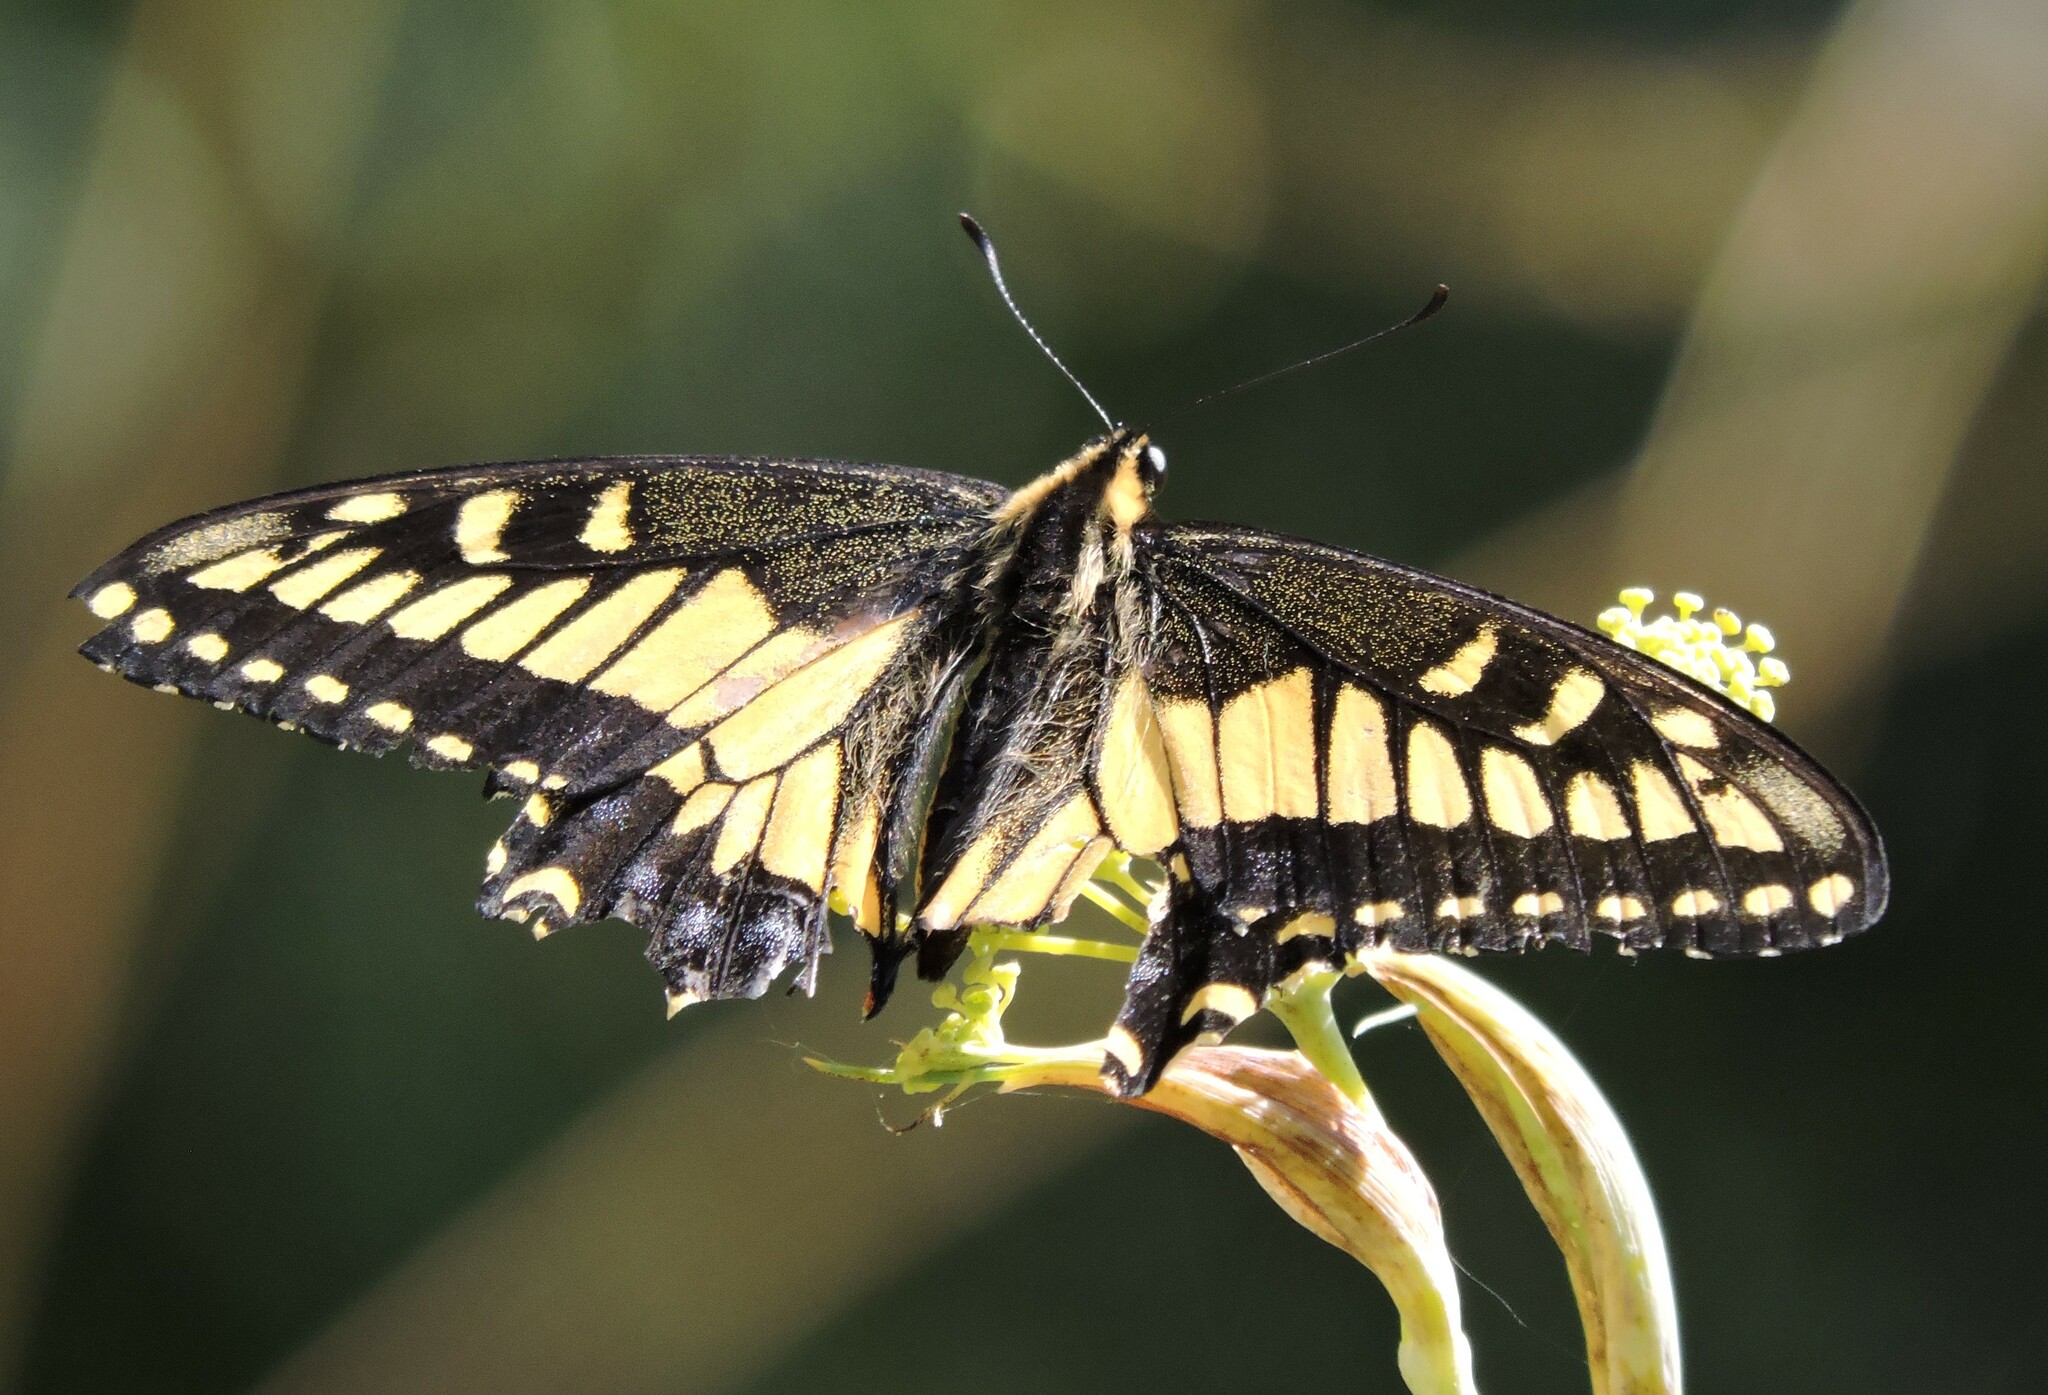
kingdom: Animalia
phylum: Arthropoda
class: Insecta
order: Lepidoptera
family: Papilionidae
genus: Papilio
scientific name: Papilio zelicaon
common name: Anise swallowtail
